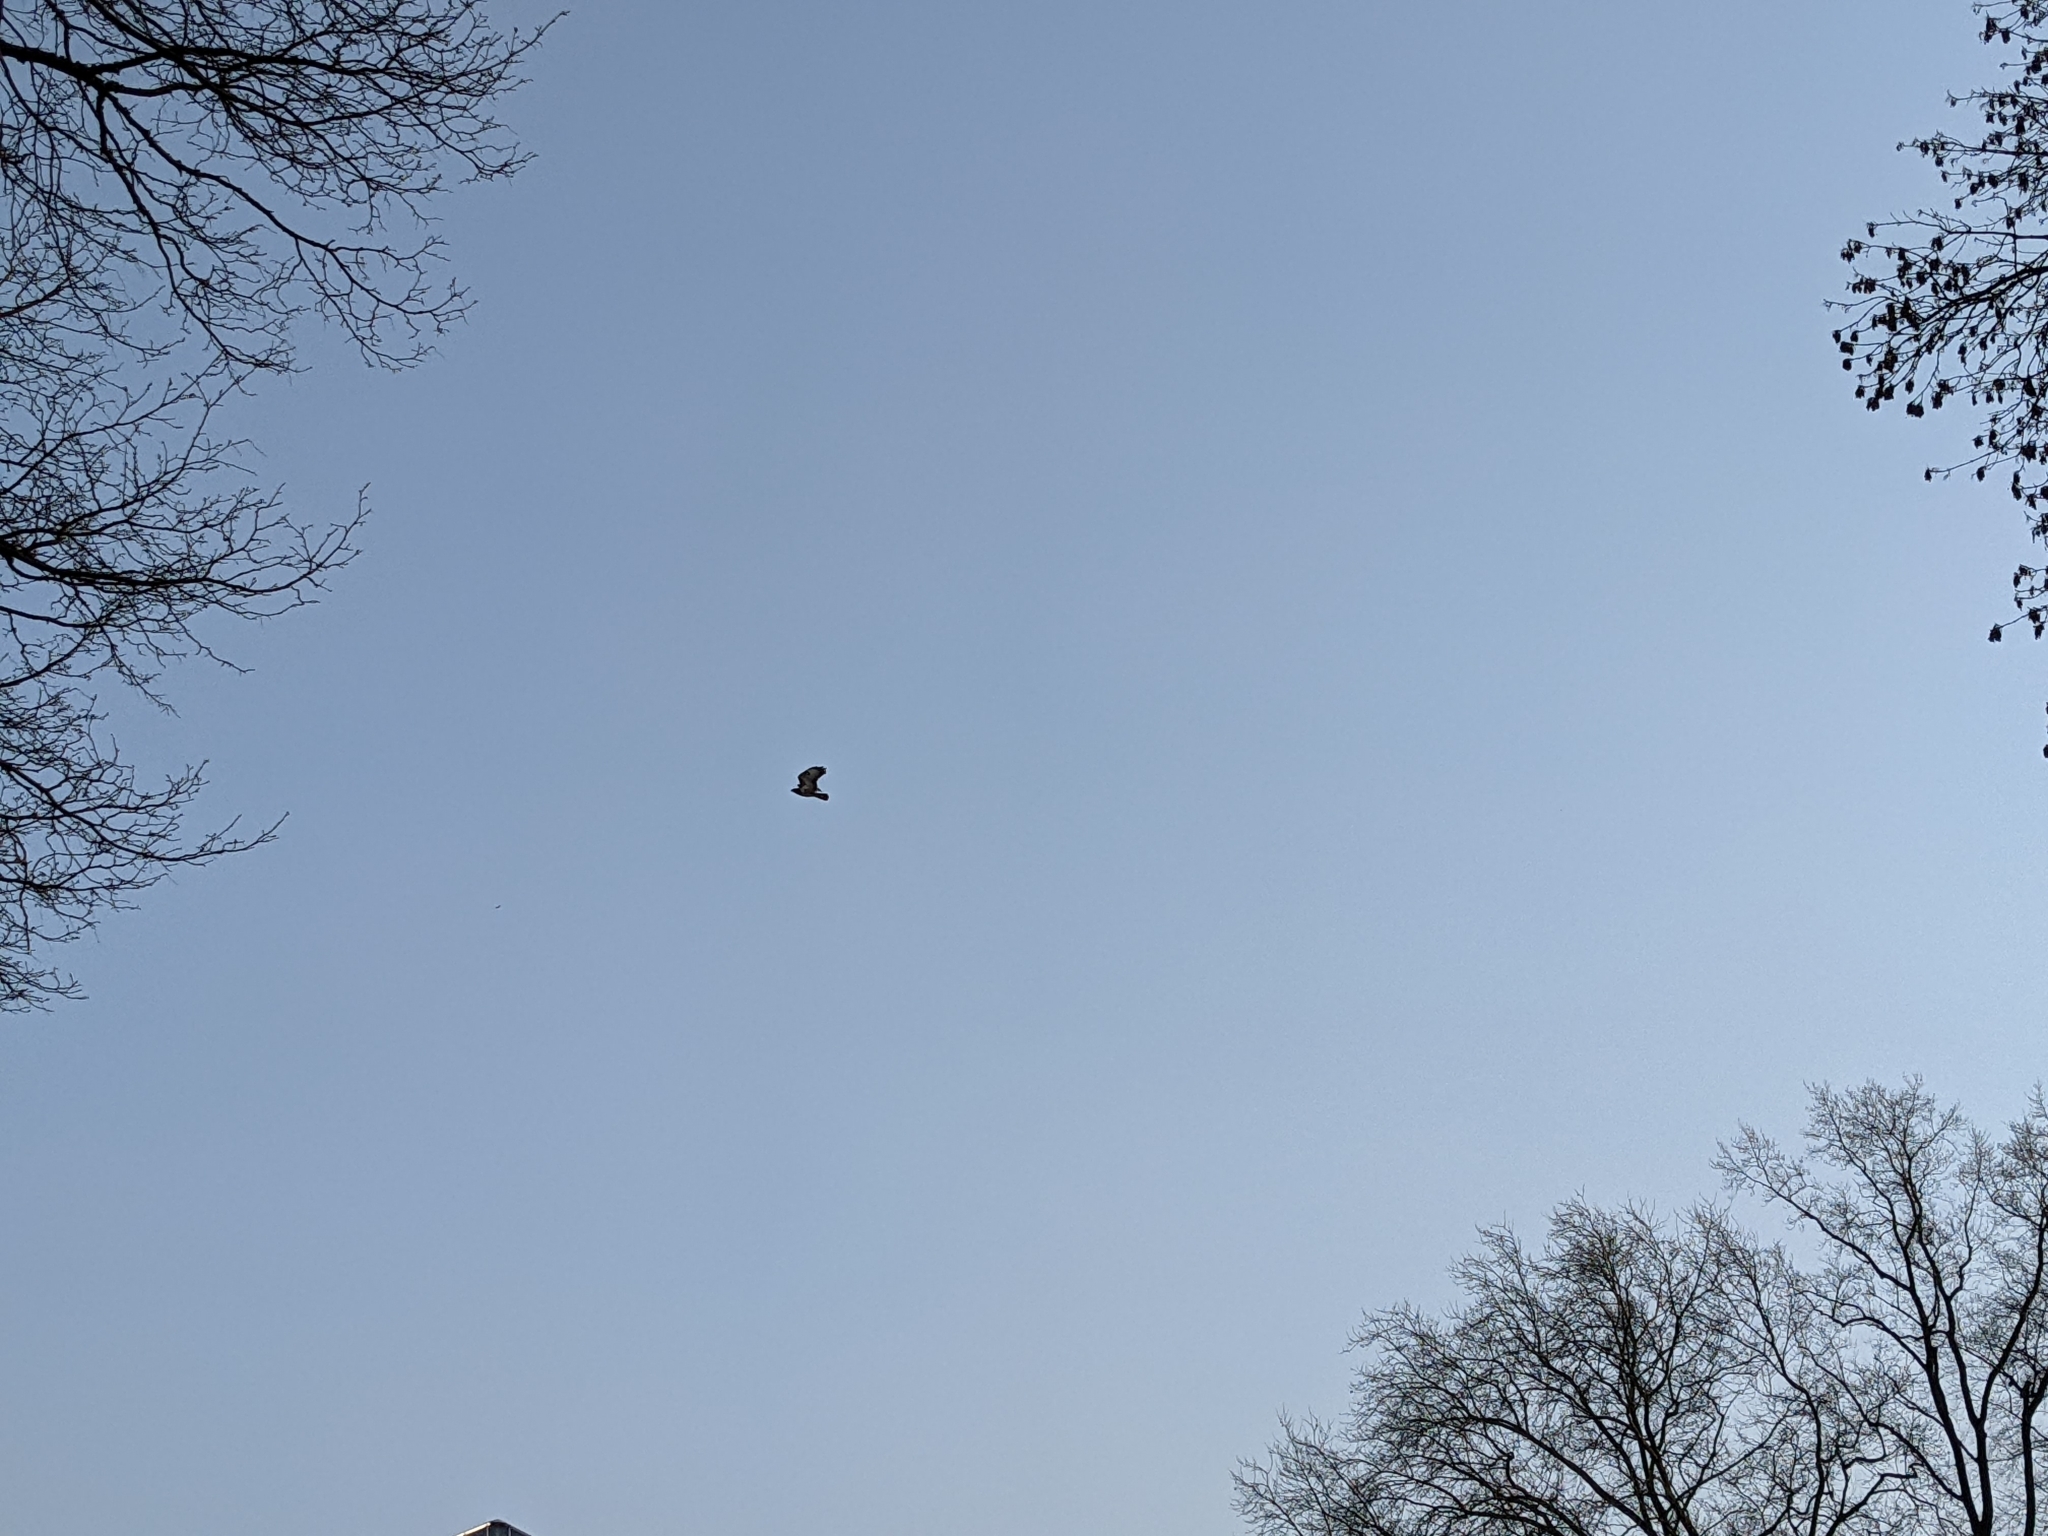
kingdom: Animalia
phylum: Chordata
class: Aves
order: Accipitriformes
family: Accipitridae
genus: Buteo
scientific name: Buteo buteo
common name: Common buzzard
